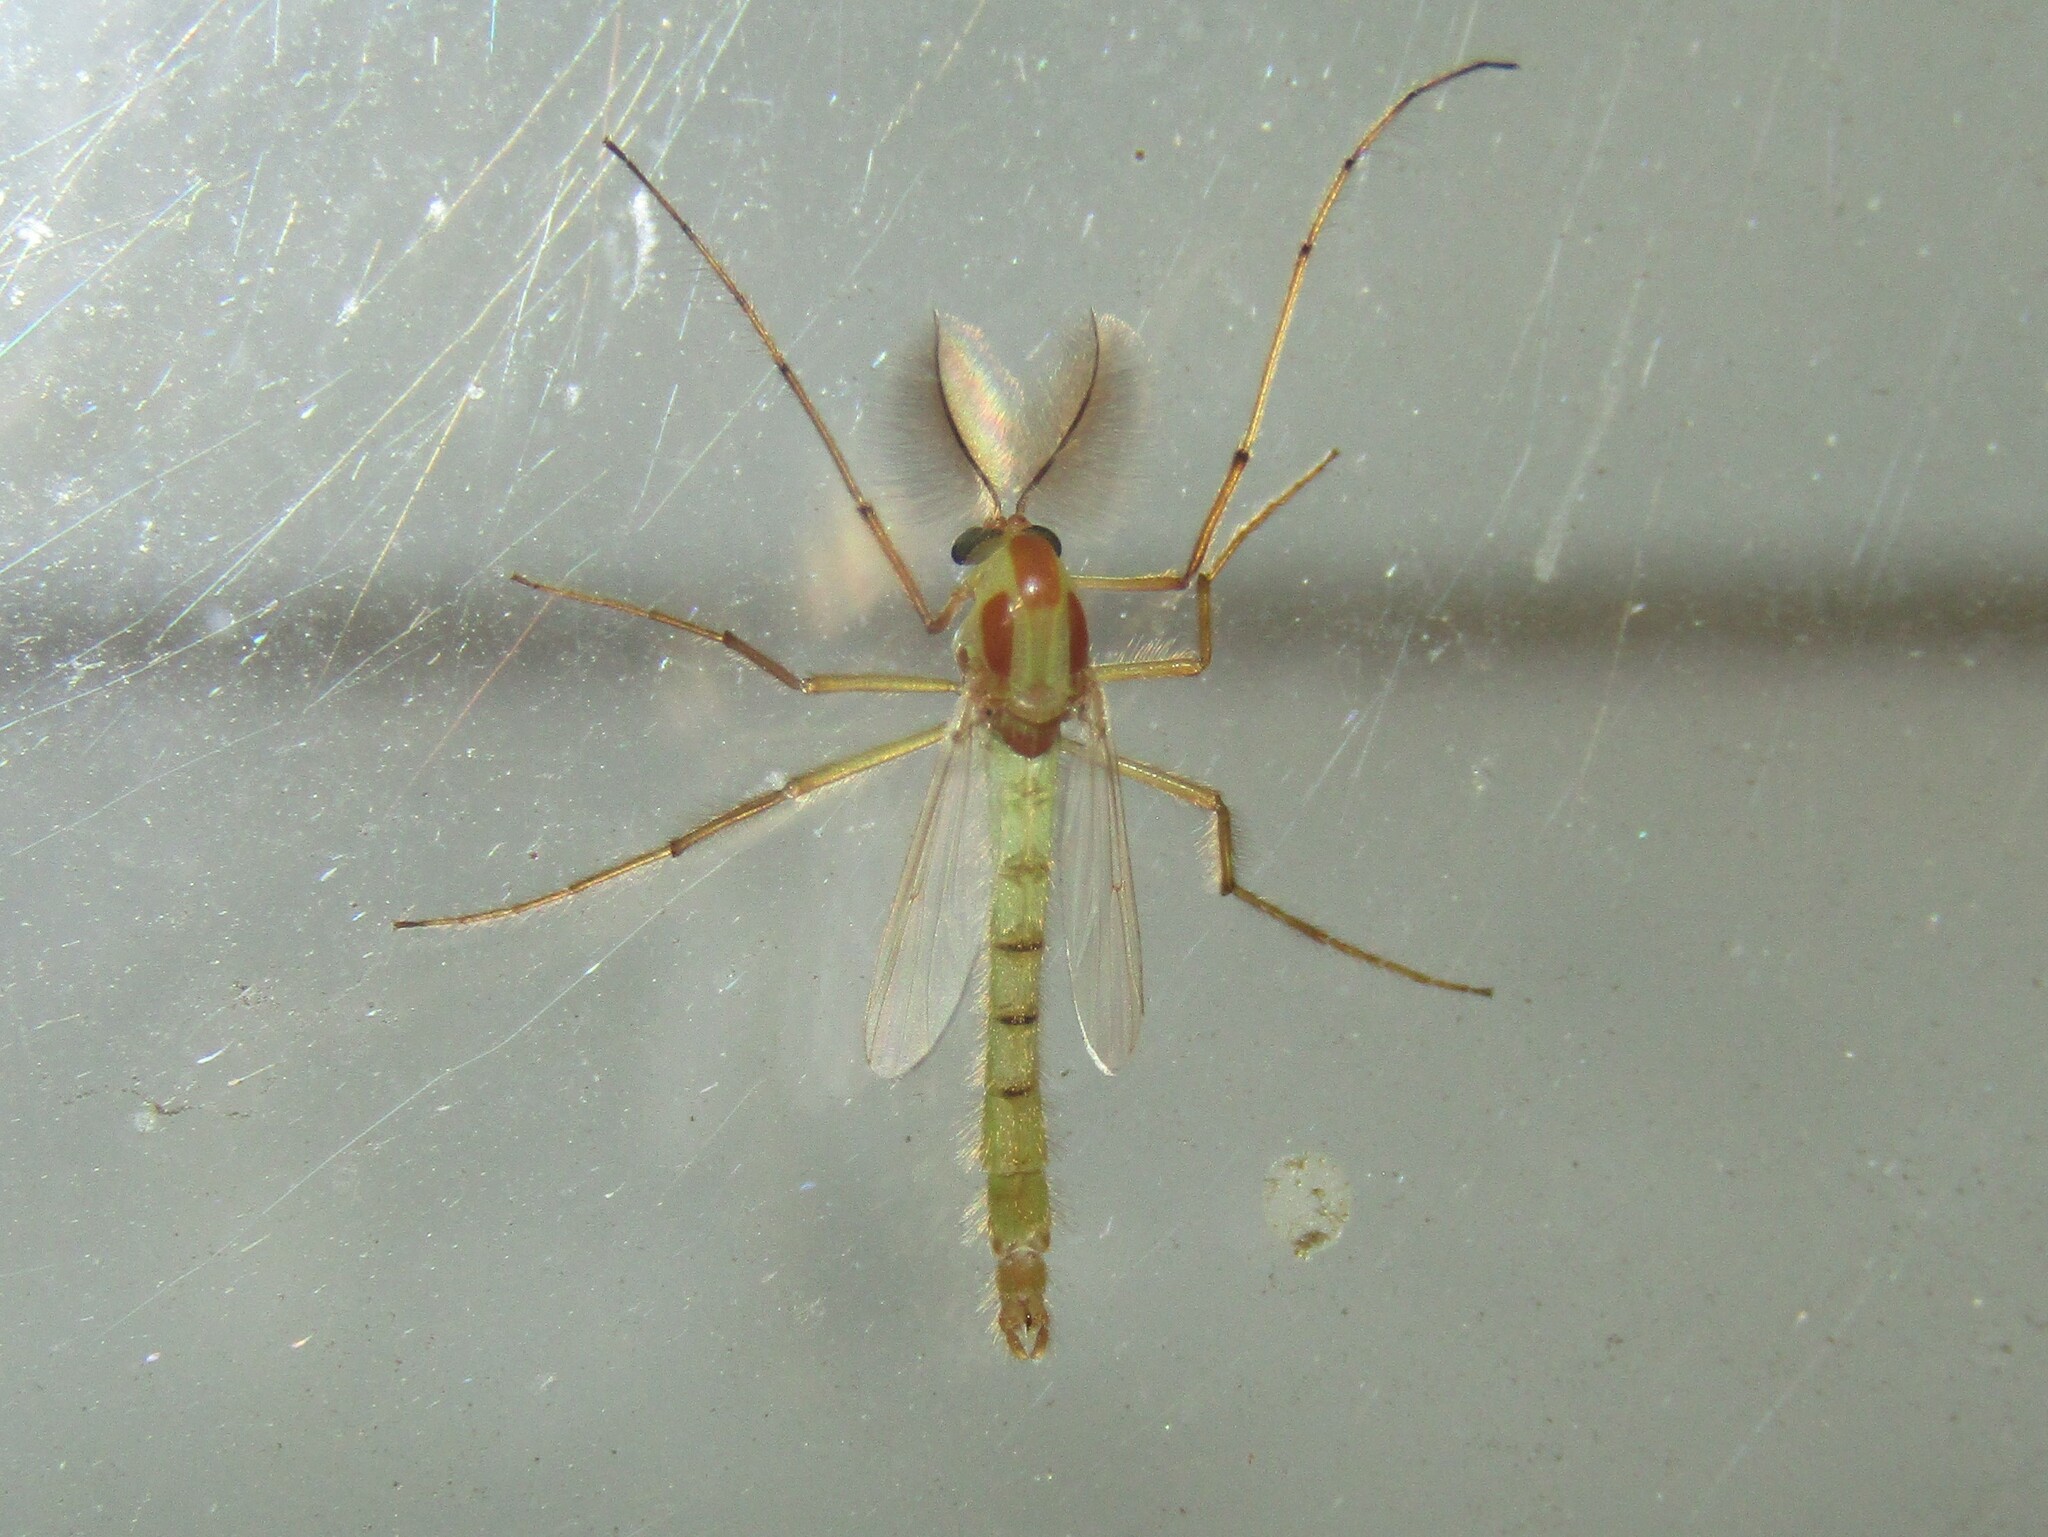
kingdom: Animalia
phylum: Arthropoda
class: Insecta
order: Diptera
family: Chironomidae
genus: Axarus
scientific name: Axarus
